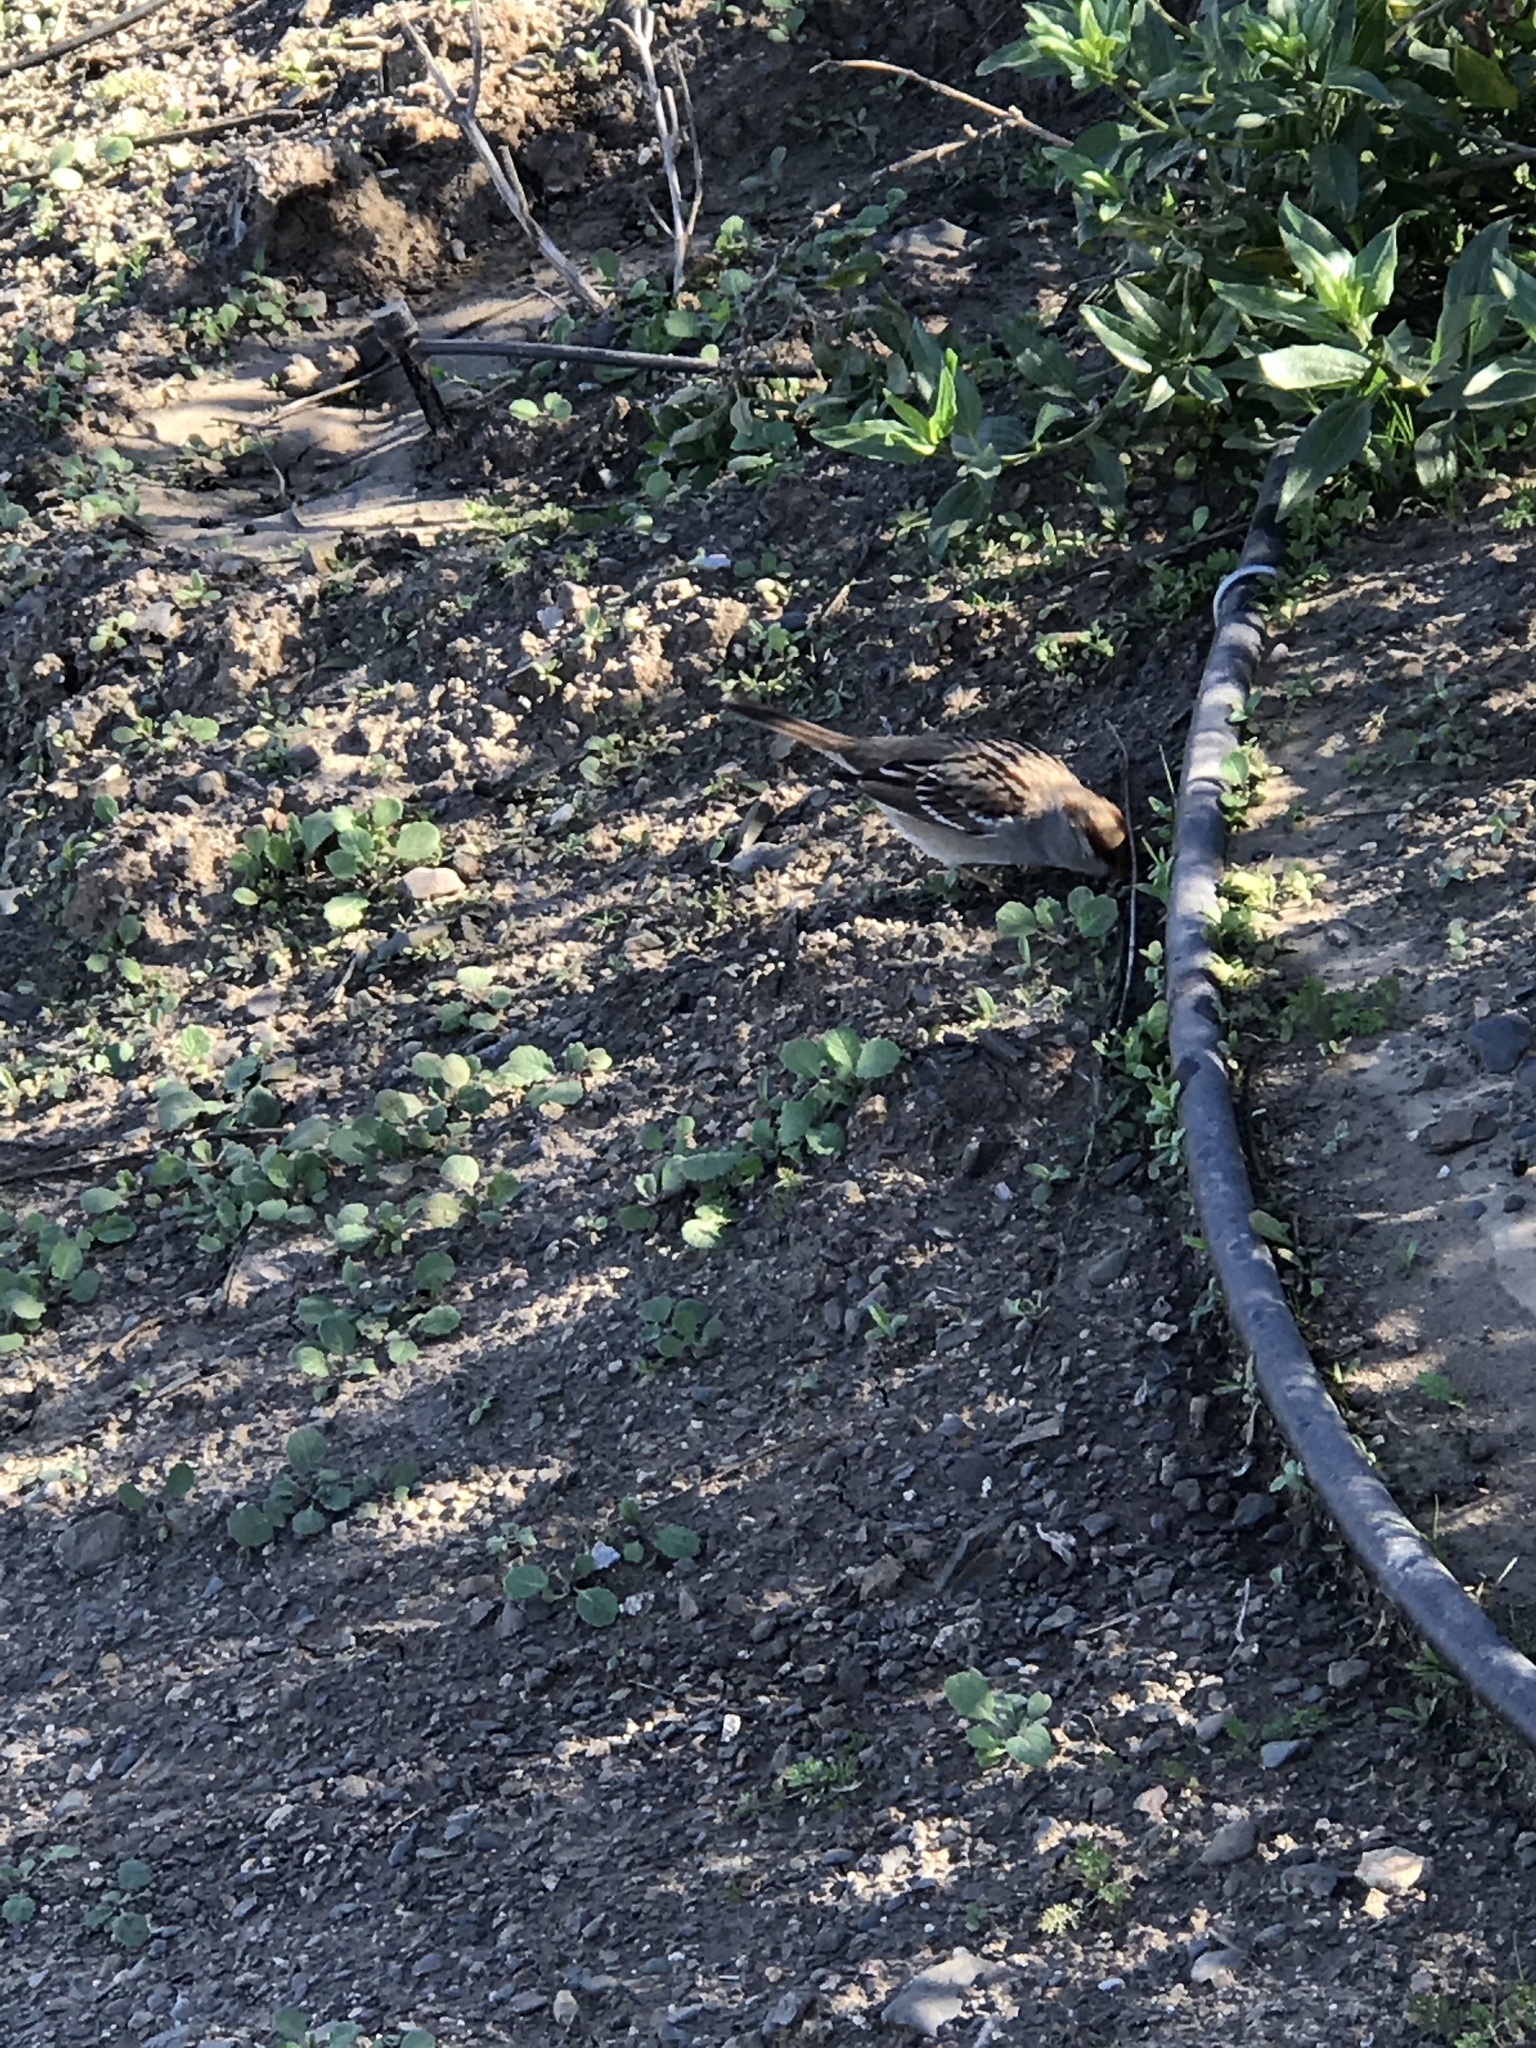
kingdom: Animalia
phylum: Chordata
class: Aves
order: Passeriformes
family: Passerellidae
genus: Zonotrichia
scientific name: Zonotrichia leucophrys
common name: White-crowned sparrow
